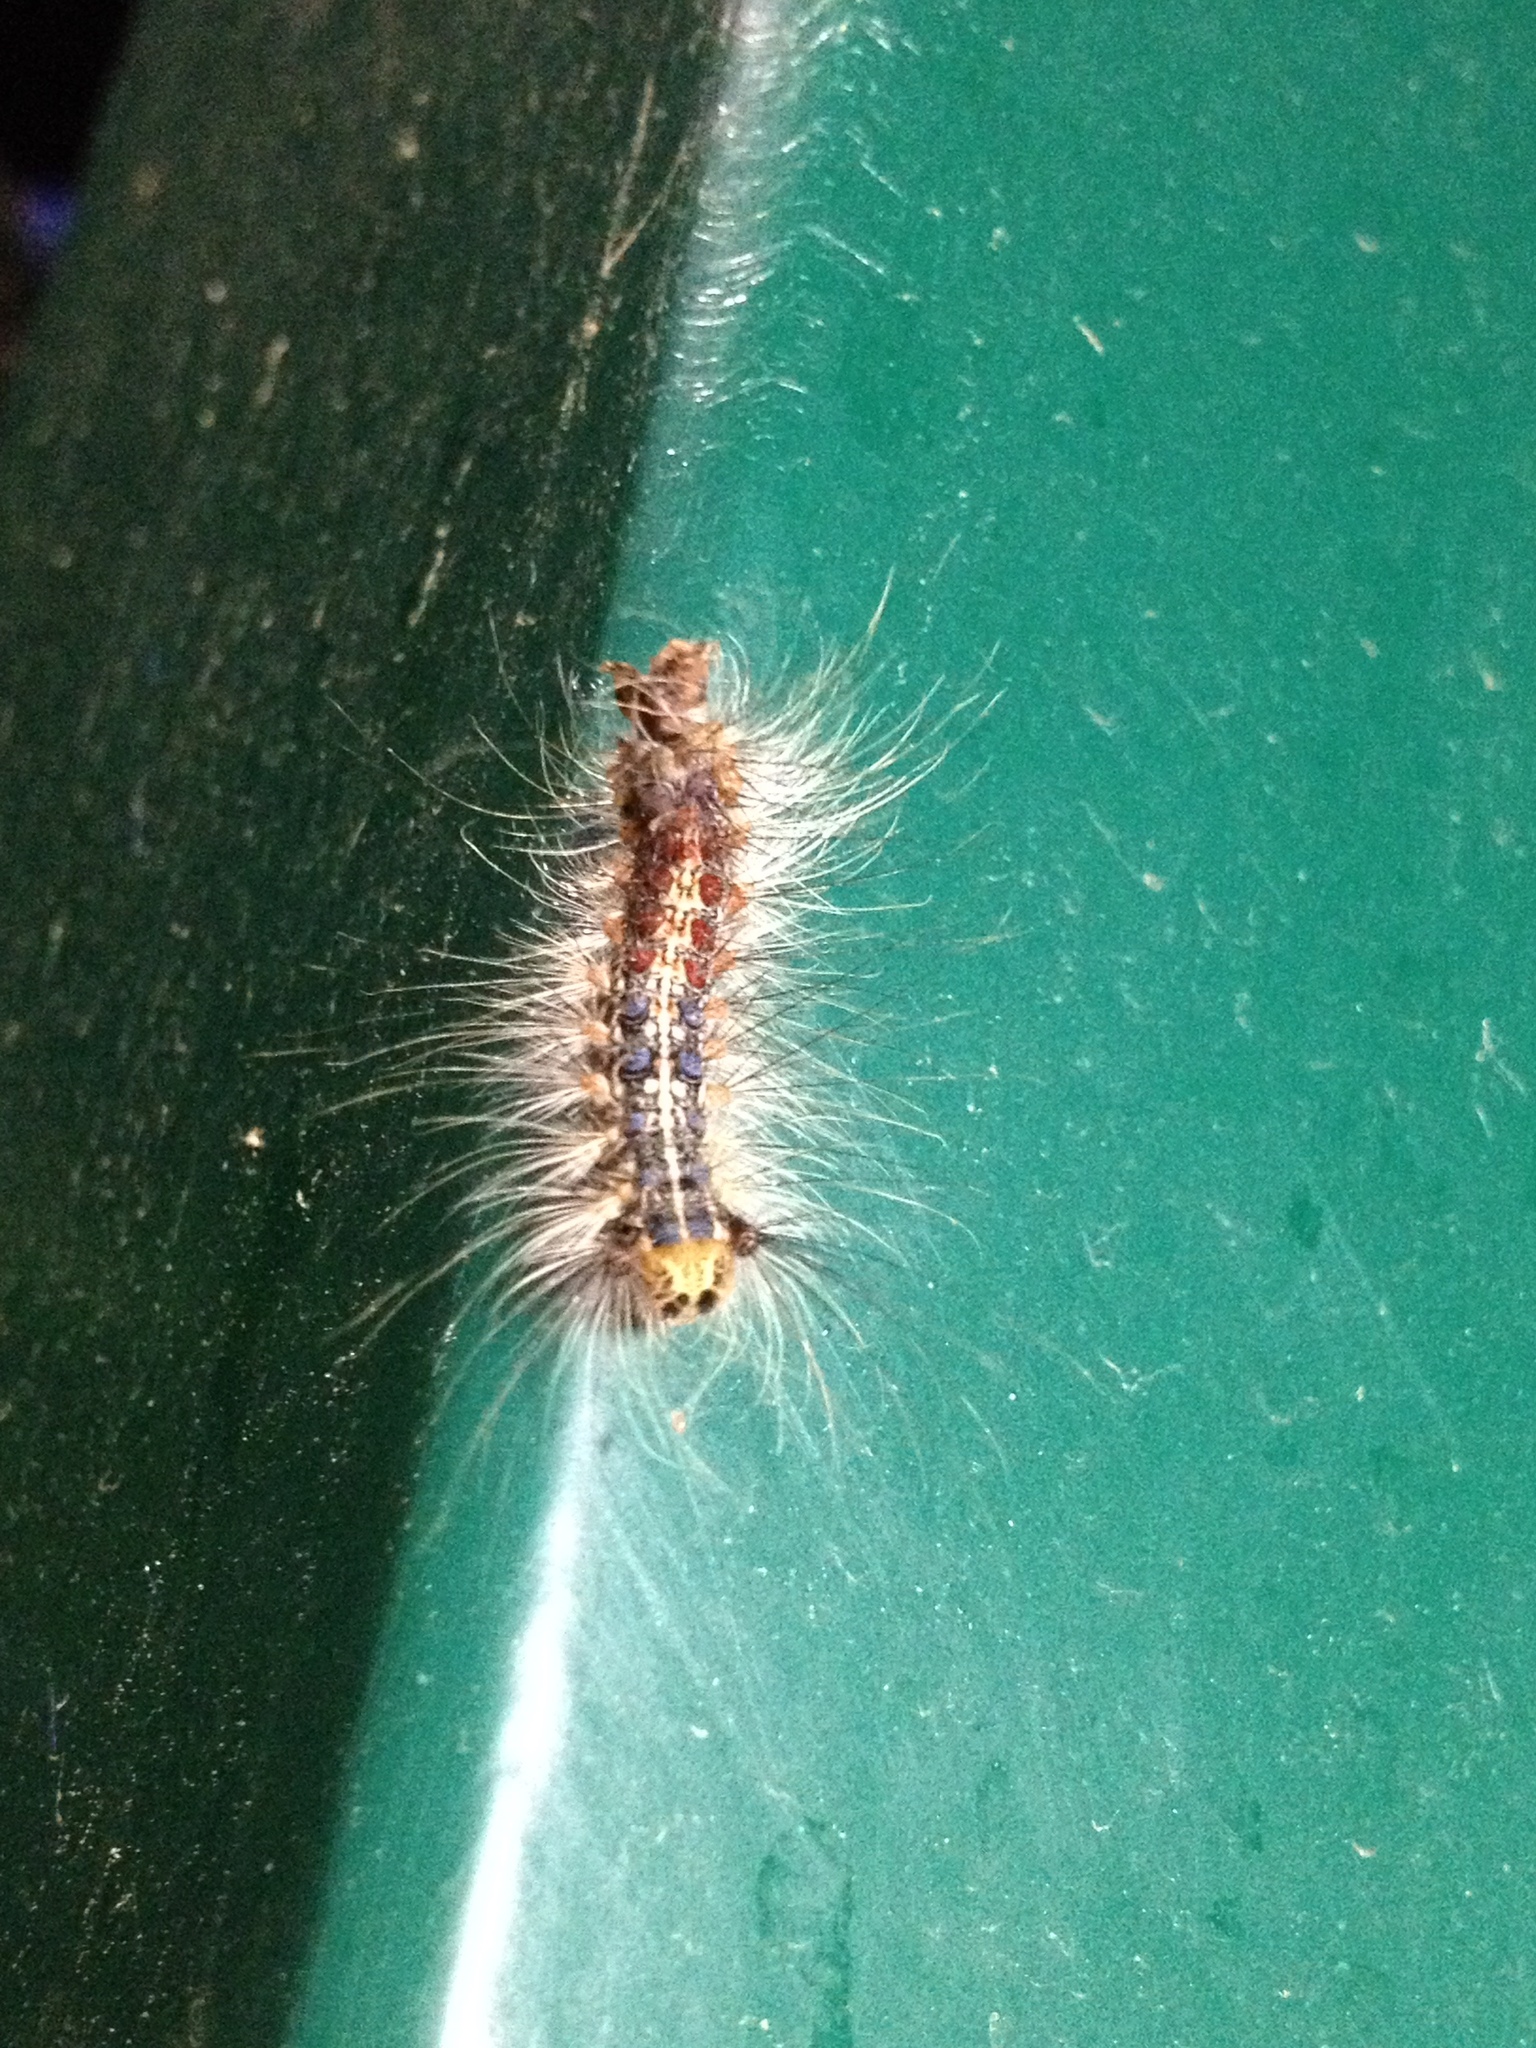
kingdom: Animalia
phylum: Arthropoda
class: Insecta
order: Lepidoptera
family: Erebidae
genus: Lymantria
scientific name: Lymantria dispar
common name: Gypsy moth
